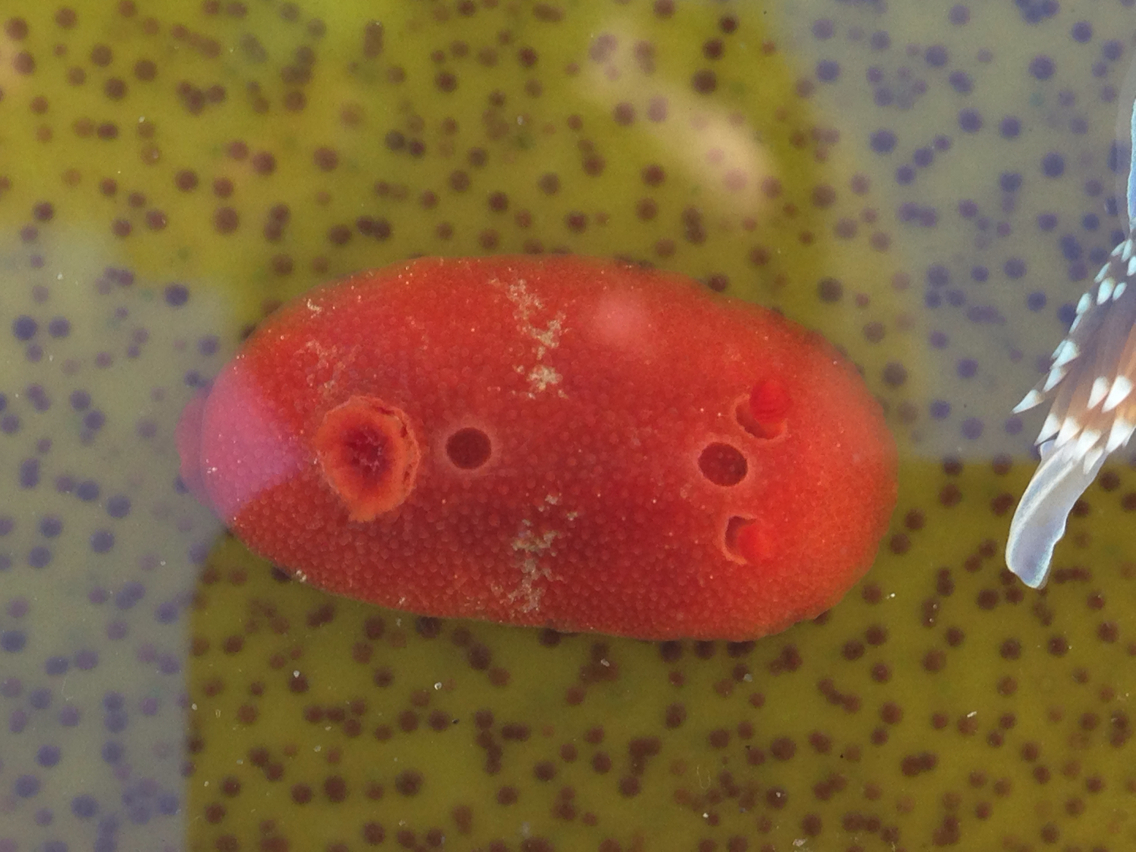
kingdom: Animalia
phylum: Mollusca
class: Gastropoda
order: Nudibranchia
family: Cadlinidae
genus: Aldisa
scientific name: Aldisa sanguinea
